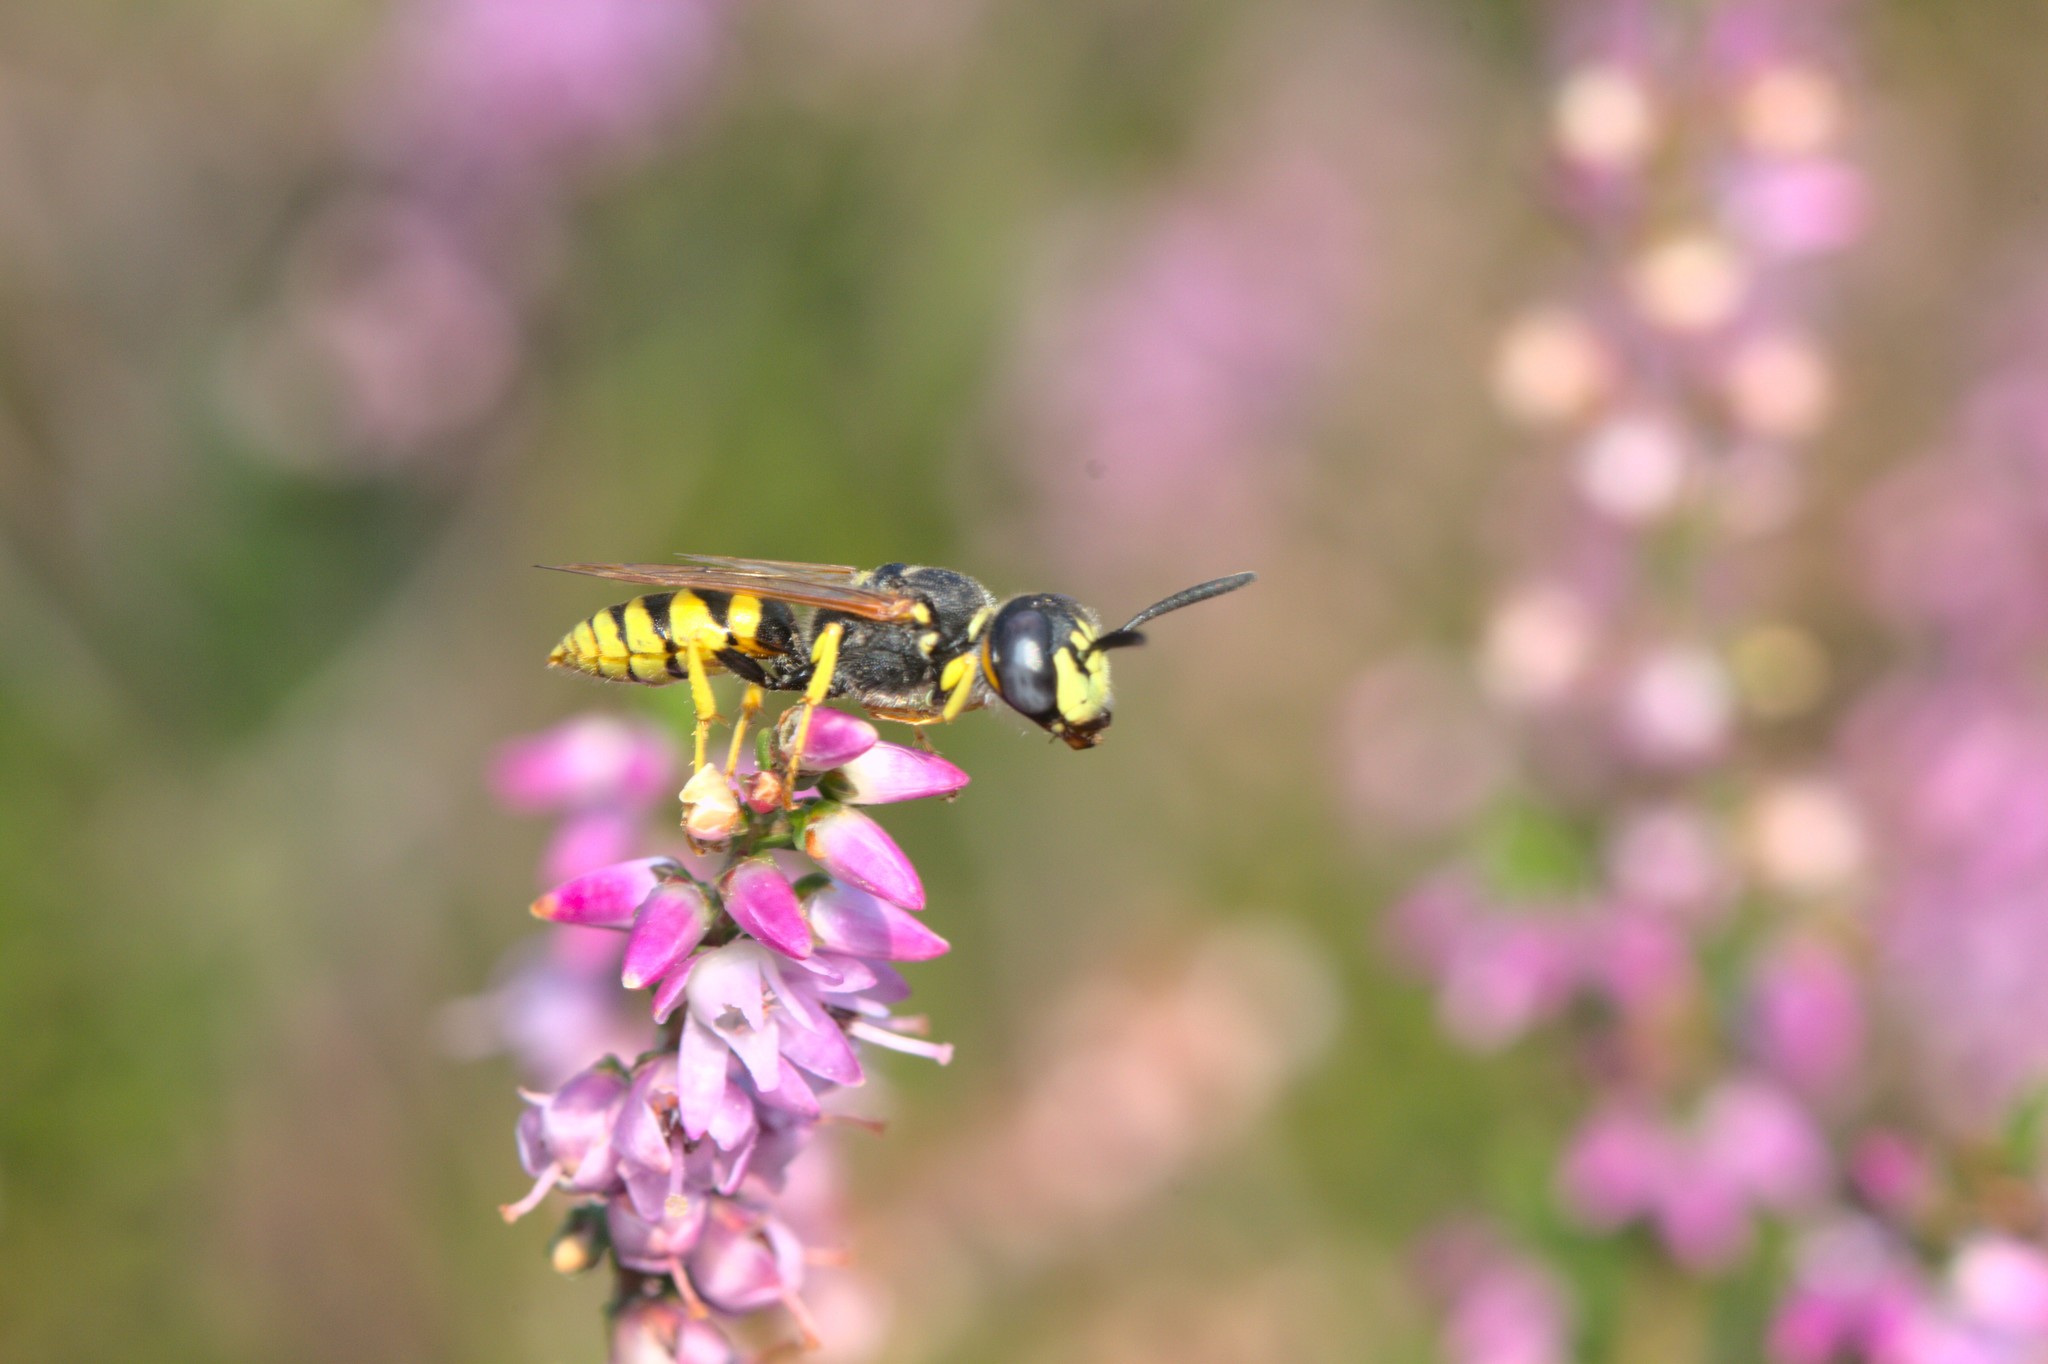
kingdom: Animalia
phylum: Arthropoda
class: Insecta
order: Hymenoptera
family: Crabronidae
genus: Philanthus
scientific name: Philanthus triangulum
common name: Bee wolf
